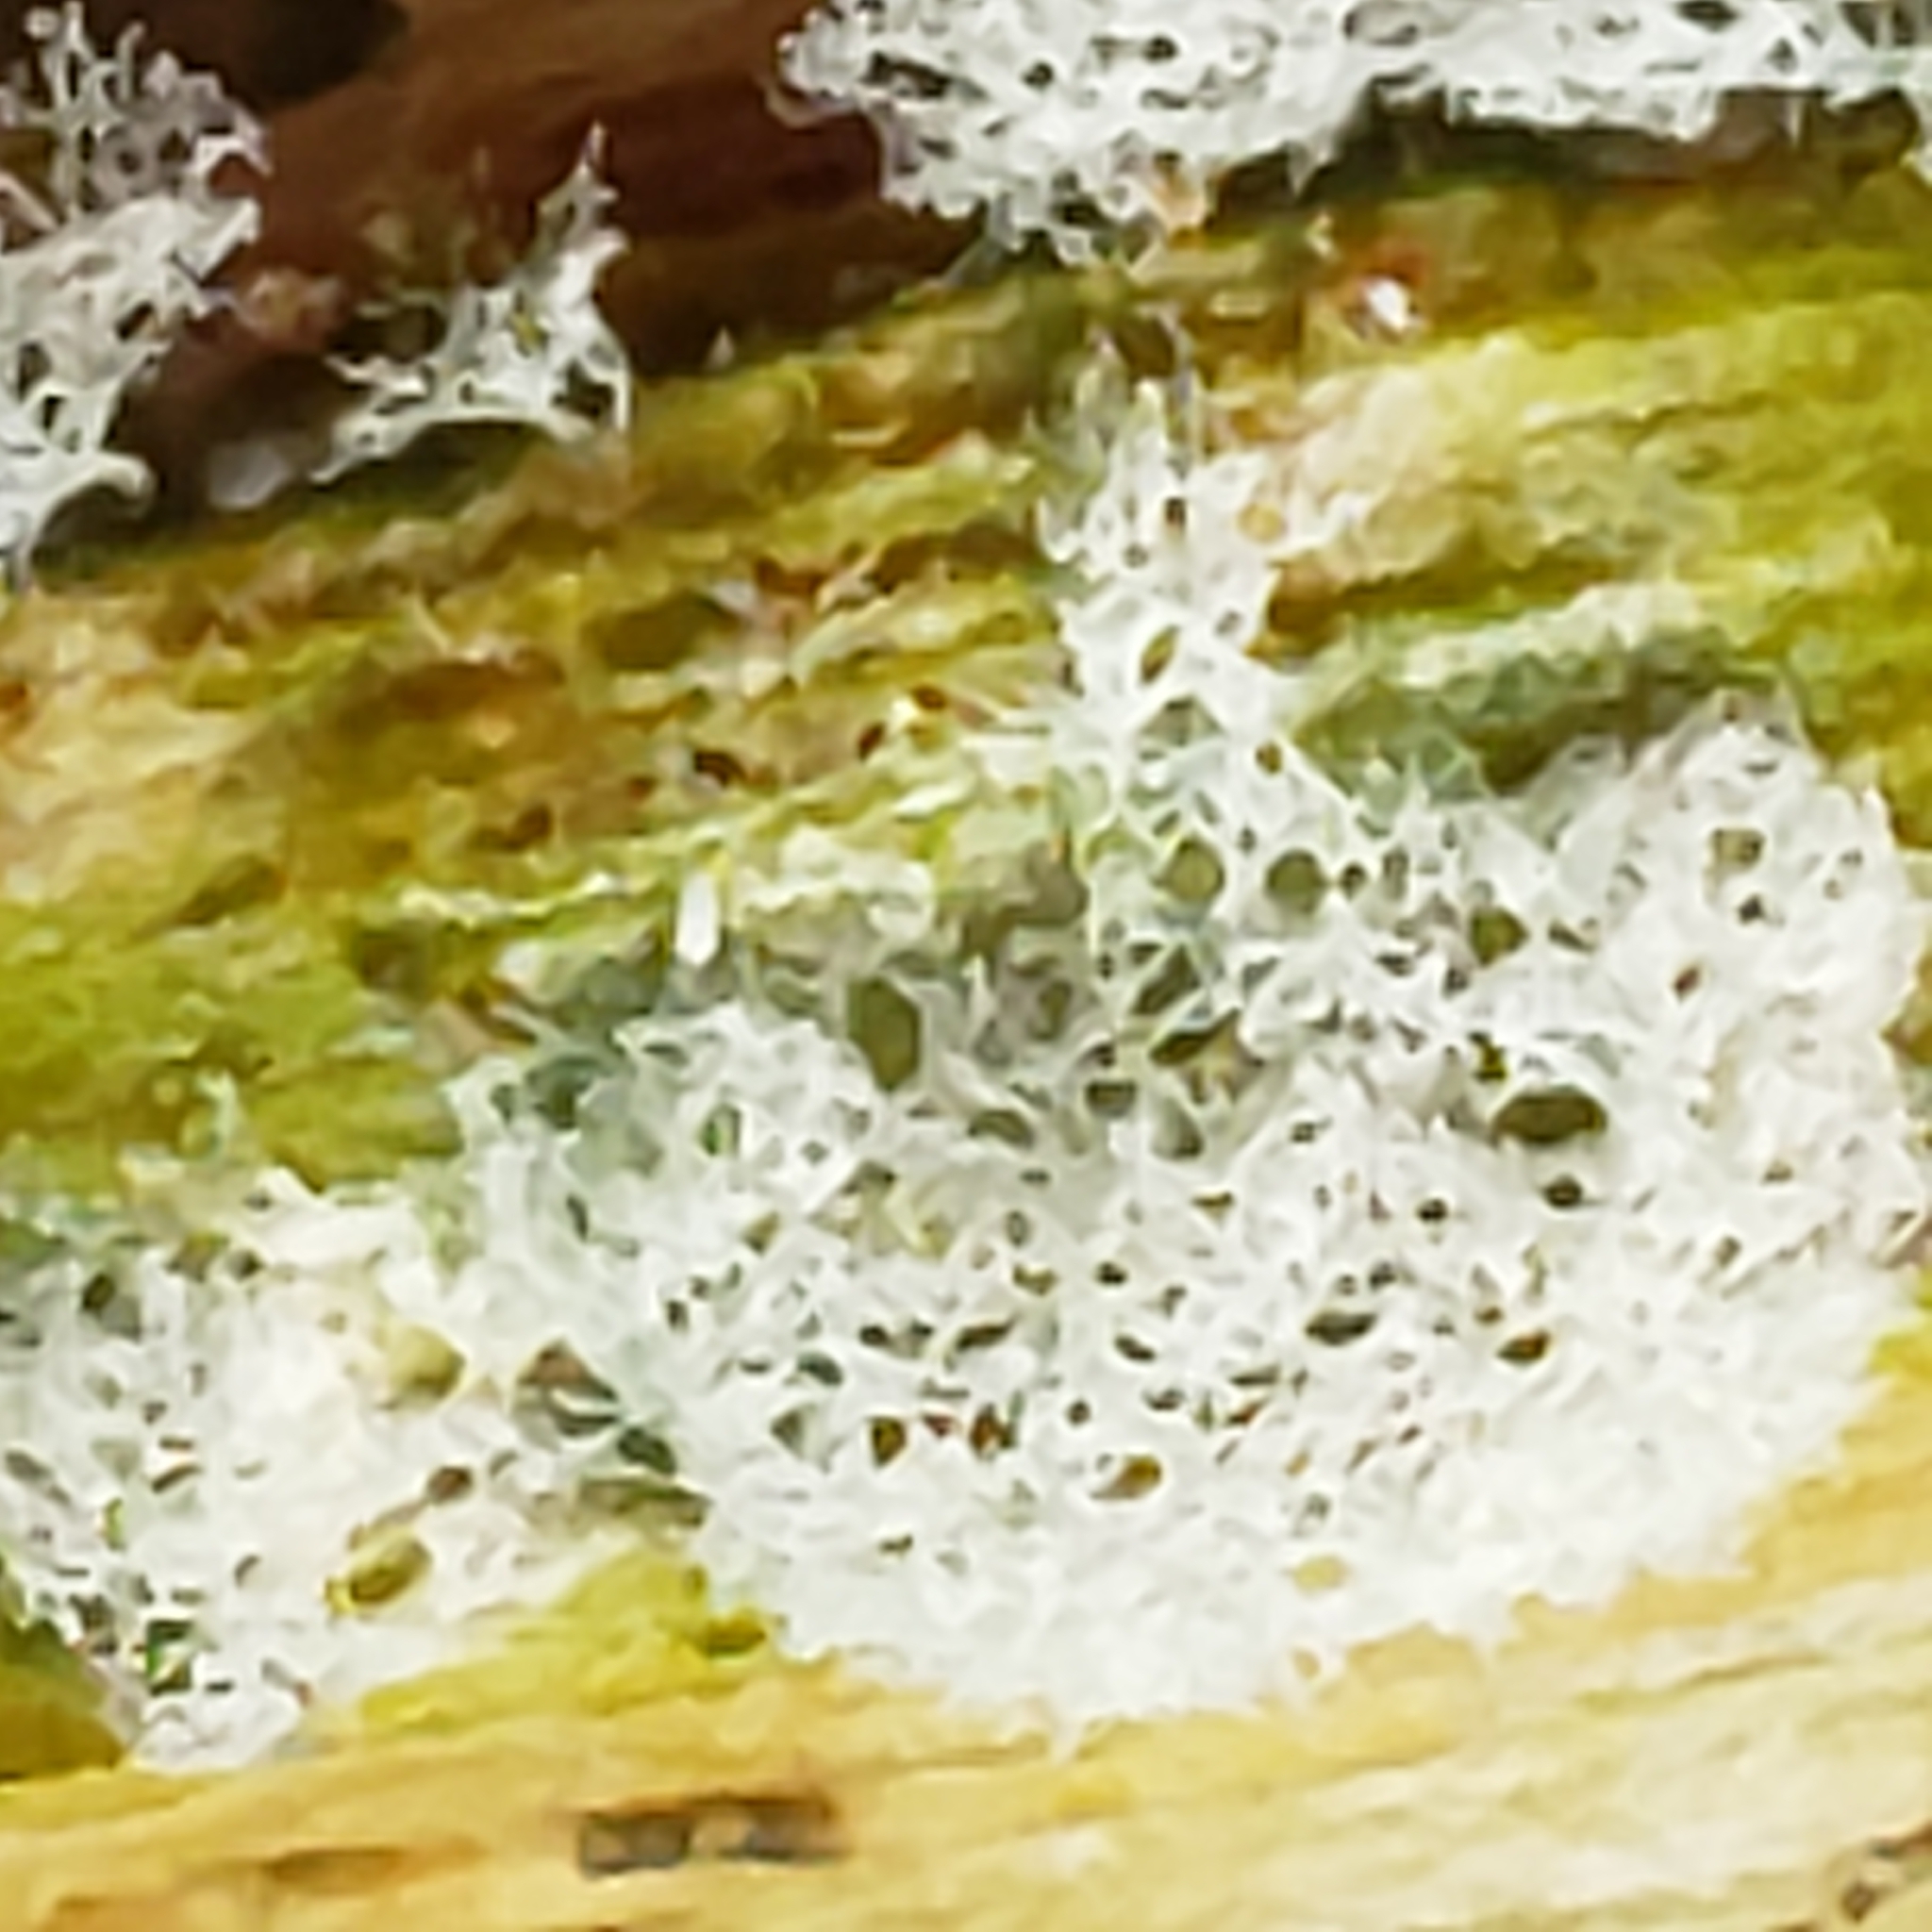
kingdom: Protozoa
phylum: Mycetozoa
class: Protosteliomycetes
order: Ceratiomyxales
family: Ceratiomyxaceae
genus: Ceratiomyxa
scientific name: Ceratiomyxa fruticulosa
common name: Honeycomb coral slime mold
